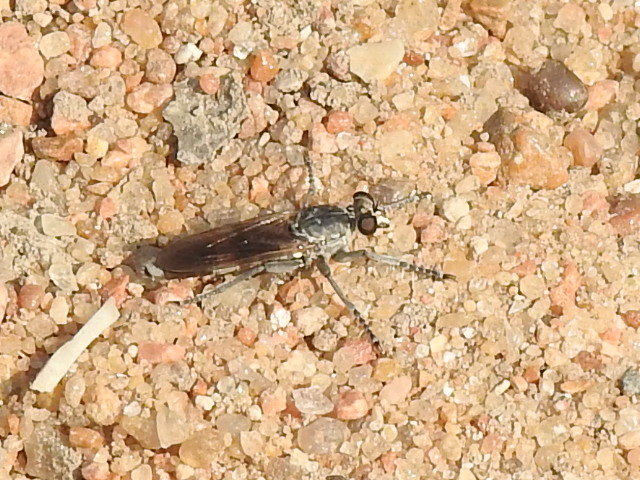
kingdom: Animalia
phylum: Arthropoda
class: Insecta
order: Diptera
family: Asilidae
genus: Stichopogon
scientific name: Stichopogon trifasciatus
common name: Three-banded robber fly
